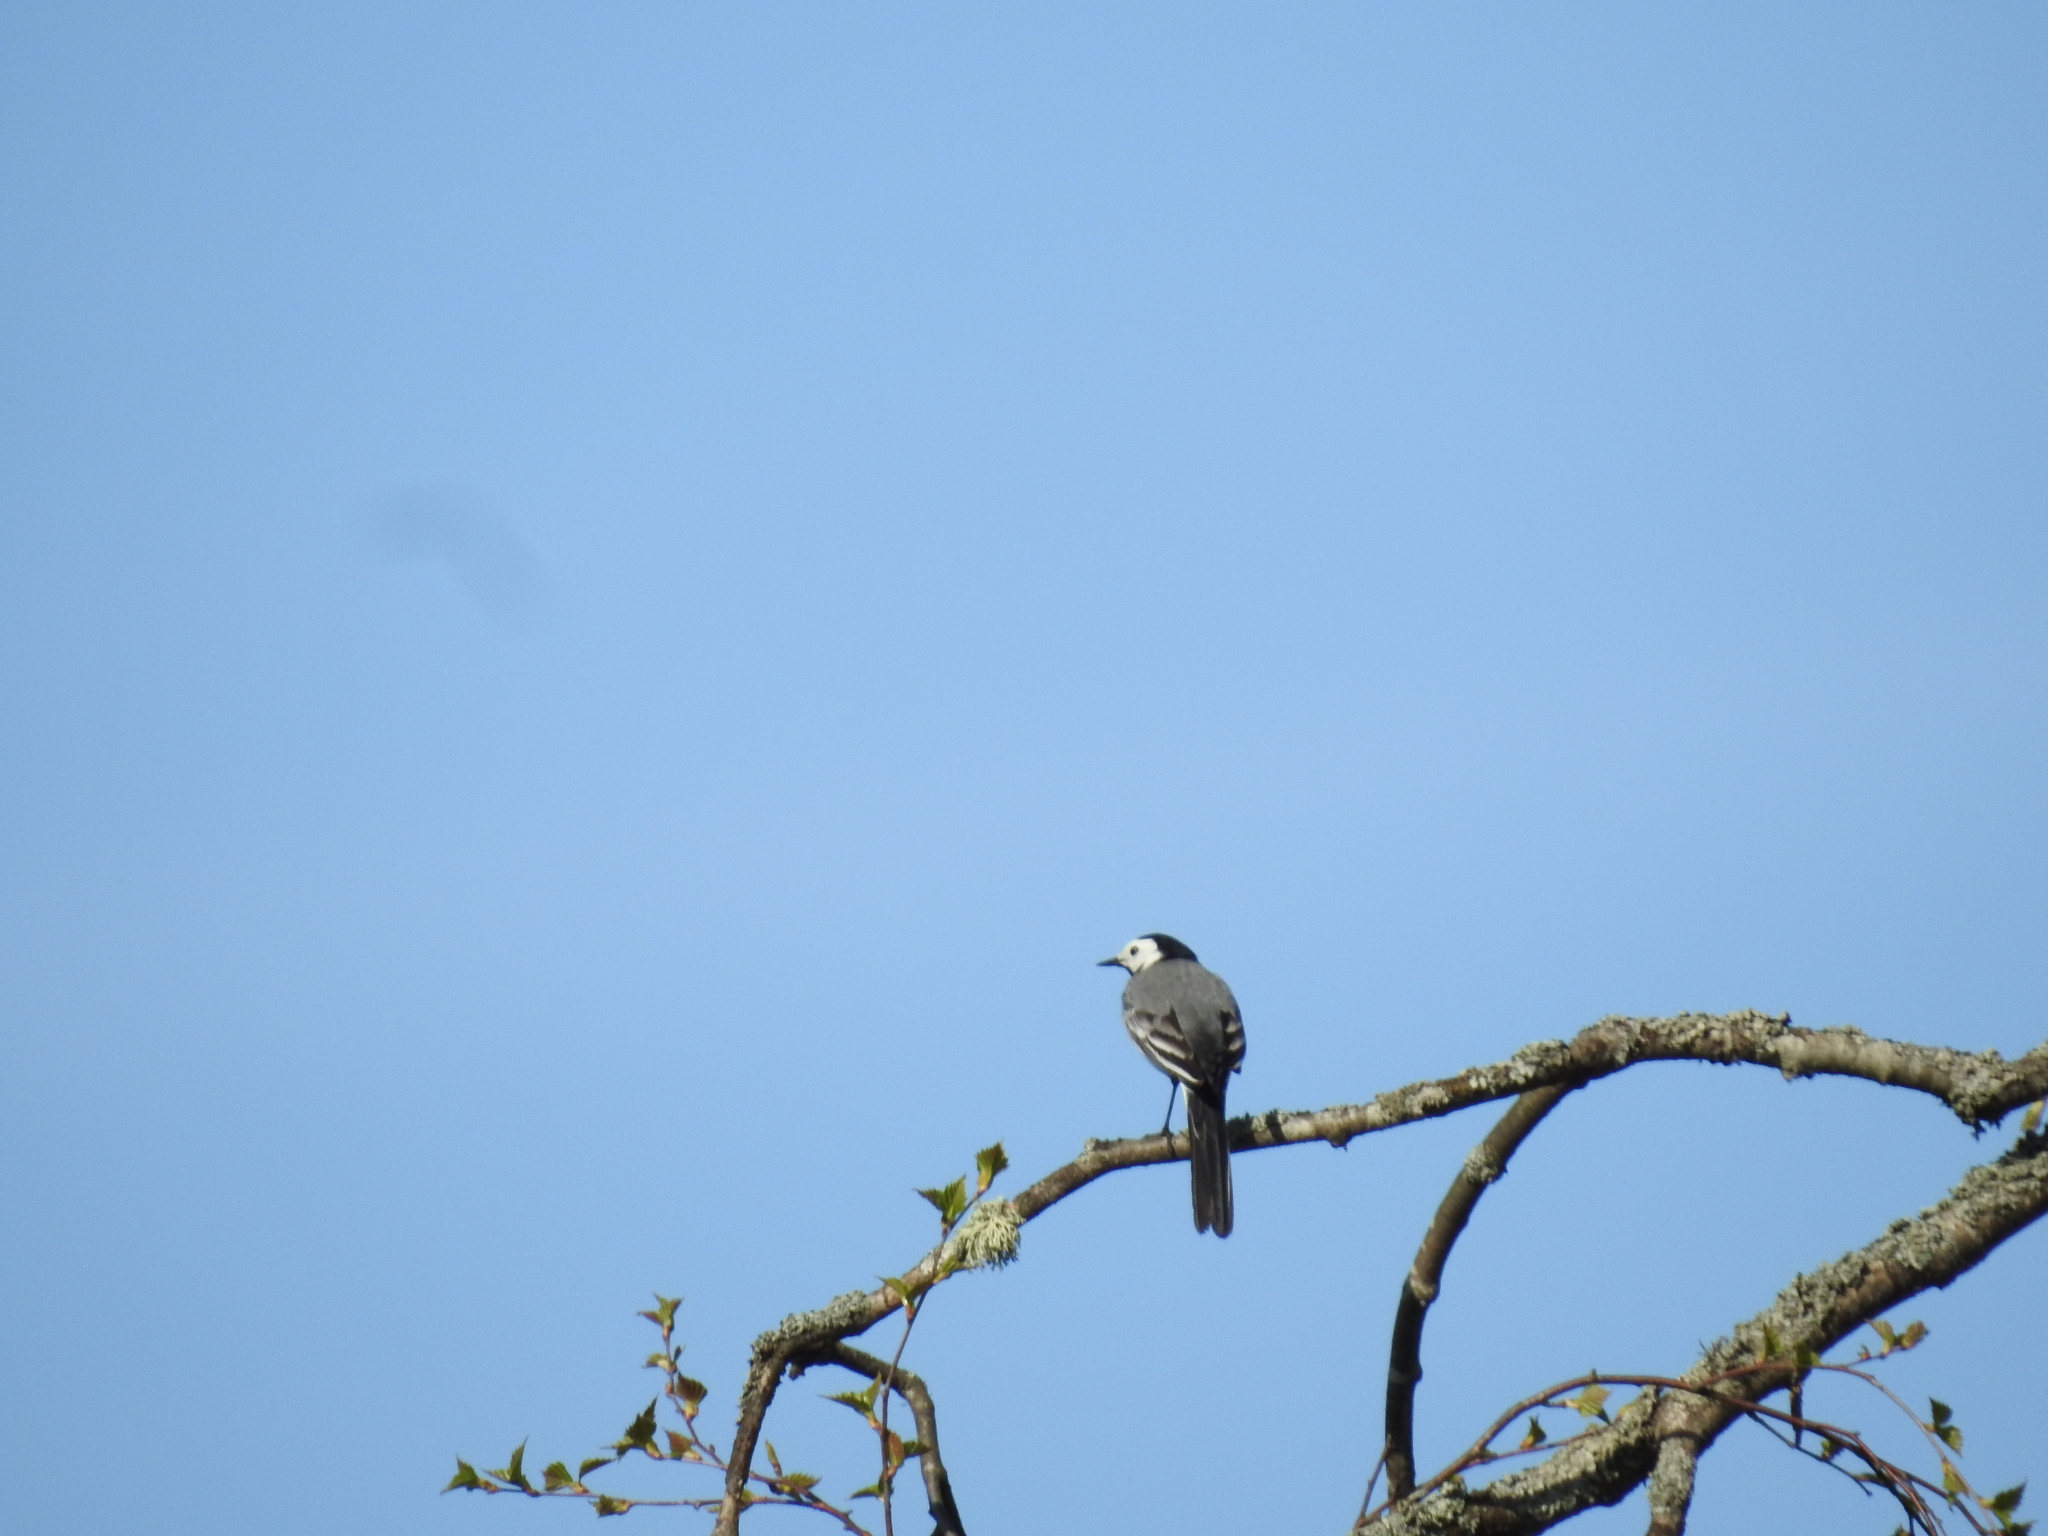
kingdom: Animalia
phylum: Chordata
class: Aves
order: Passeriformes
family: Motacillidae
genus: Motacilla
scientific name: Motacilla alba
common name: White wagtail
